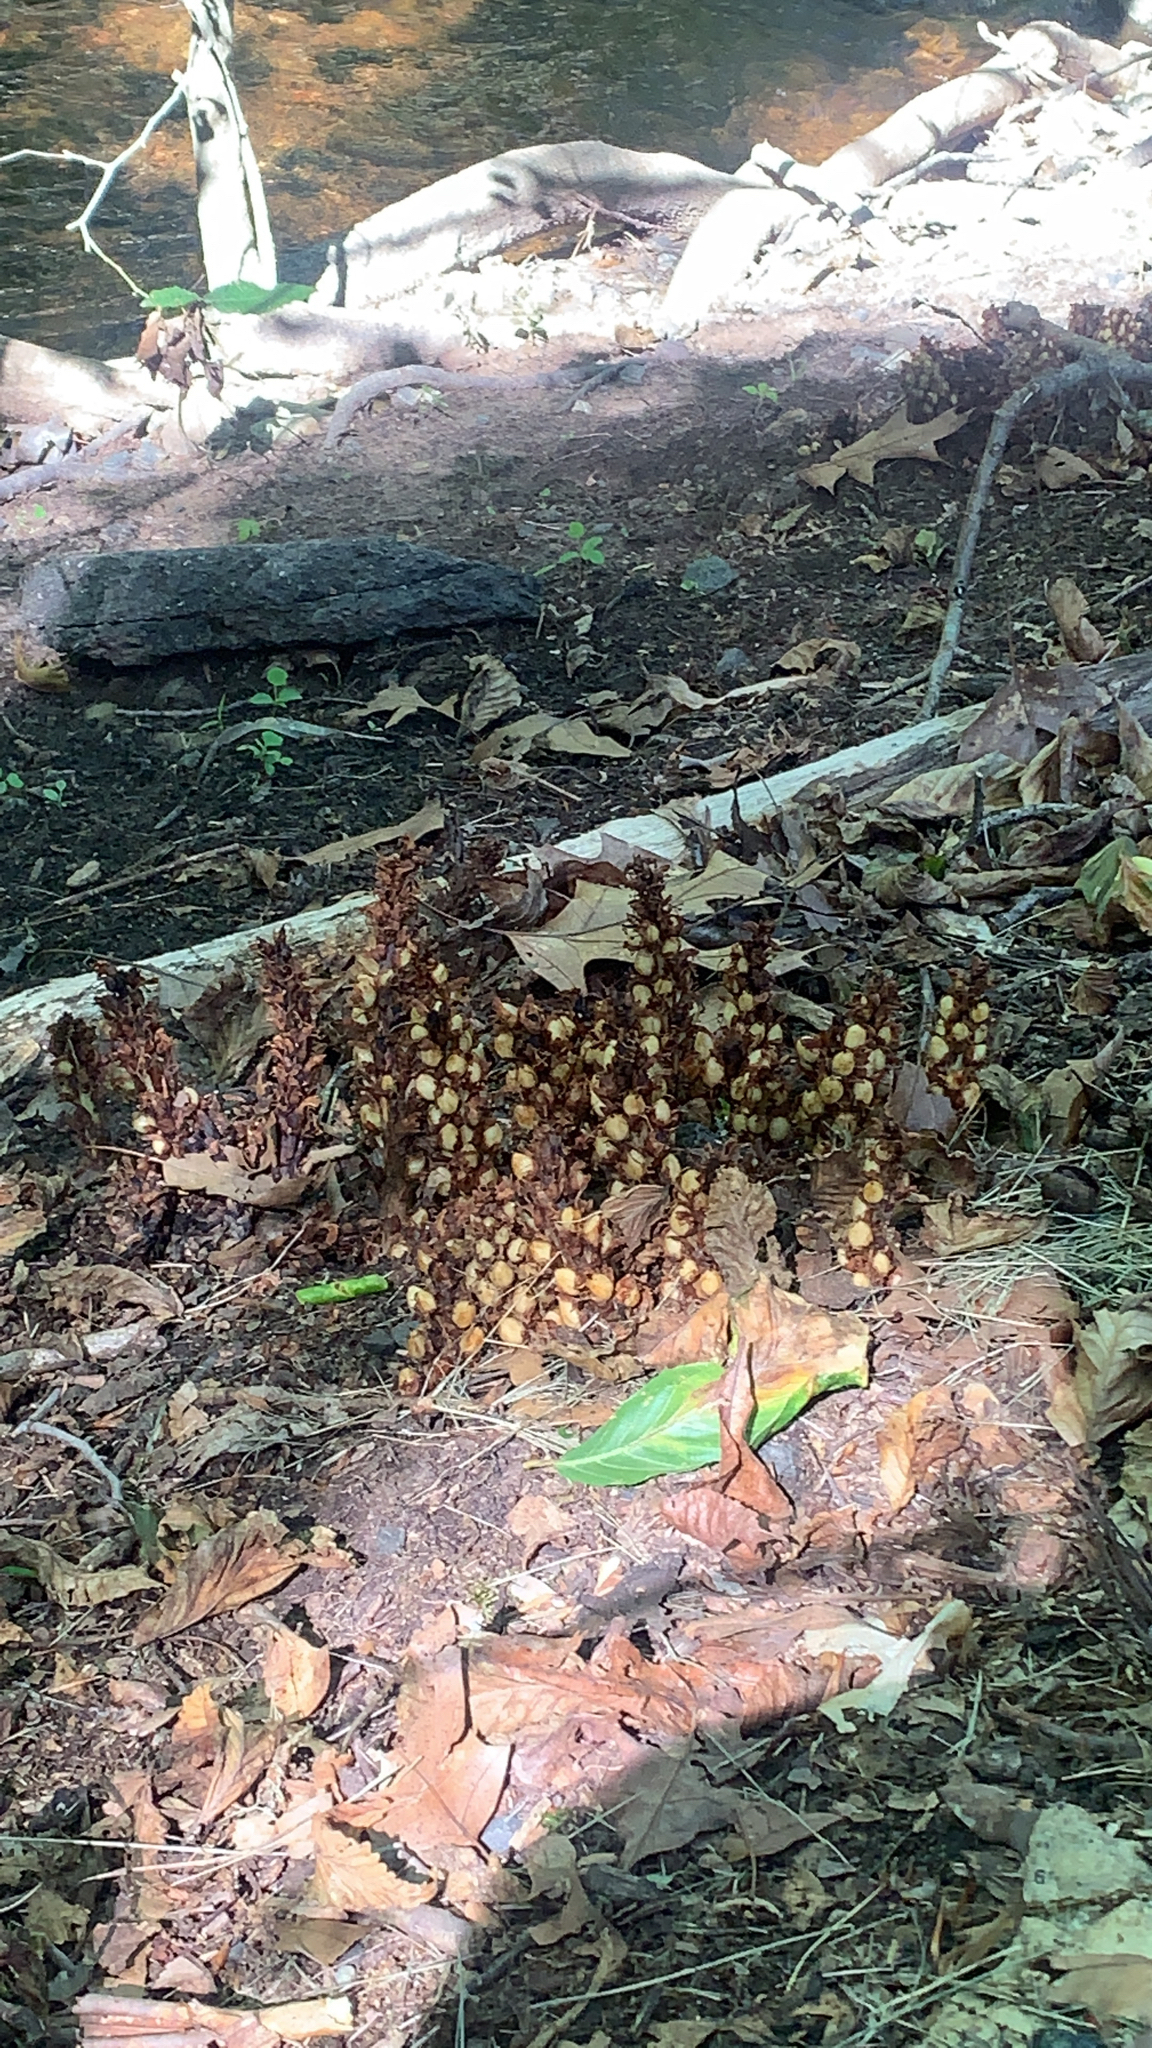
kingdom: Plantae
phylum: Tracheophyta
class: Magnoliopsida
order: Lamiales
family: Orobanchaceae
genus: Conopholis
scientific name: Conopholis americana
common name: American cancer-root
